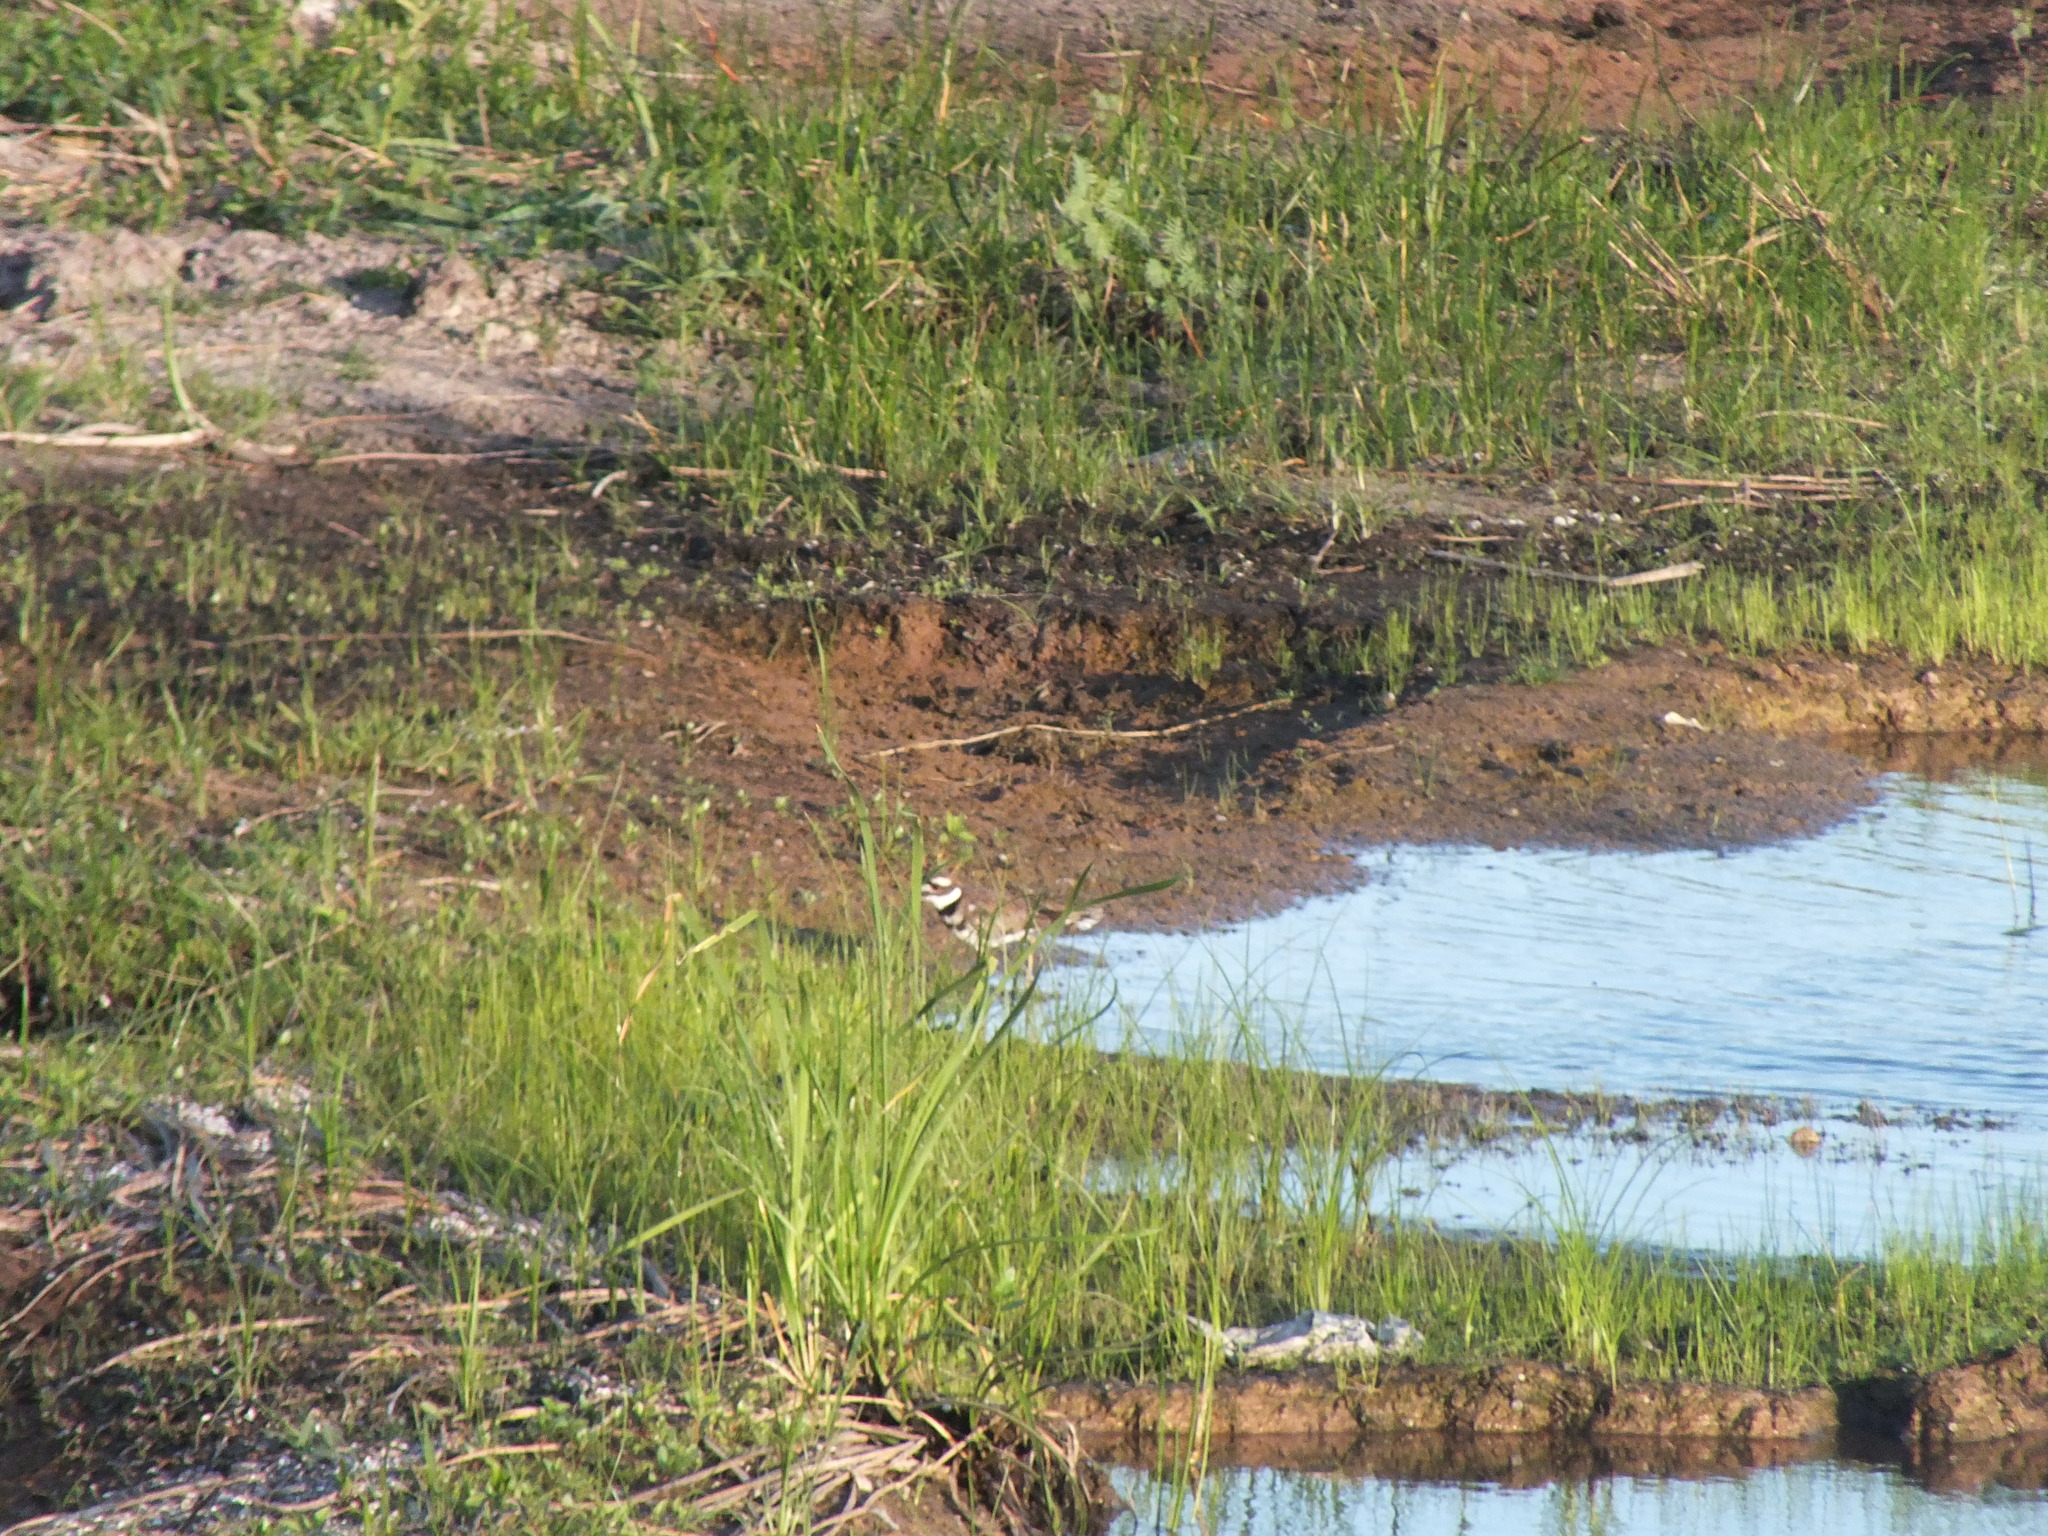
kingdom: Animalia
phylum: Chordata
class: Aves
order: Charadriiformes
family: Charadriidae
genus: Charadrius
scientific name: Charadrius vociferus
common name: Killdeer
